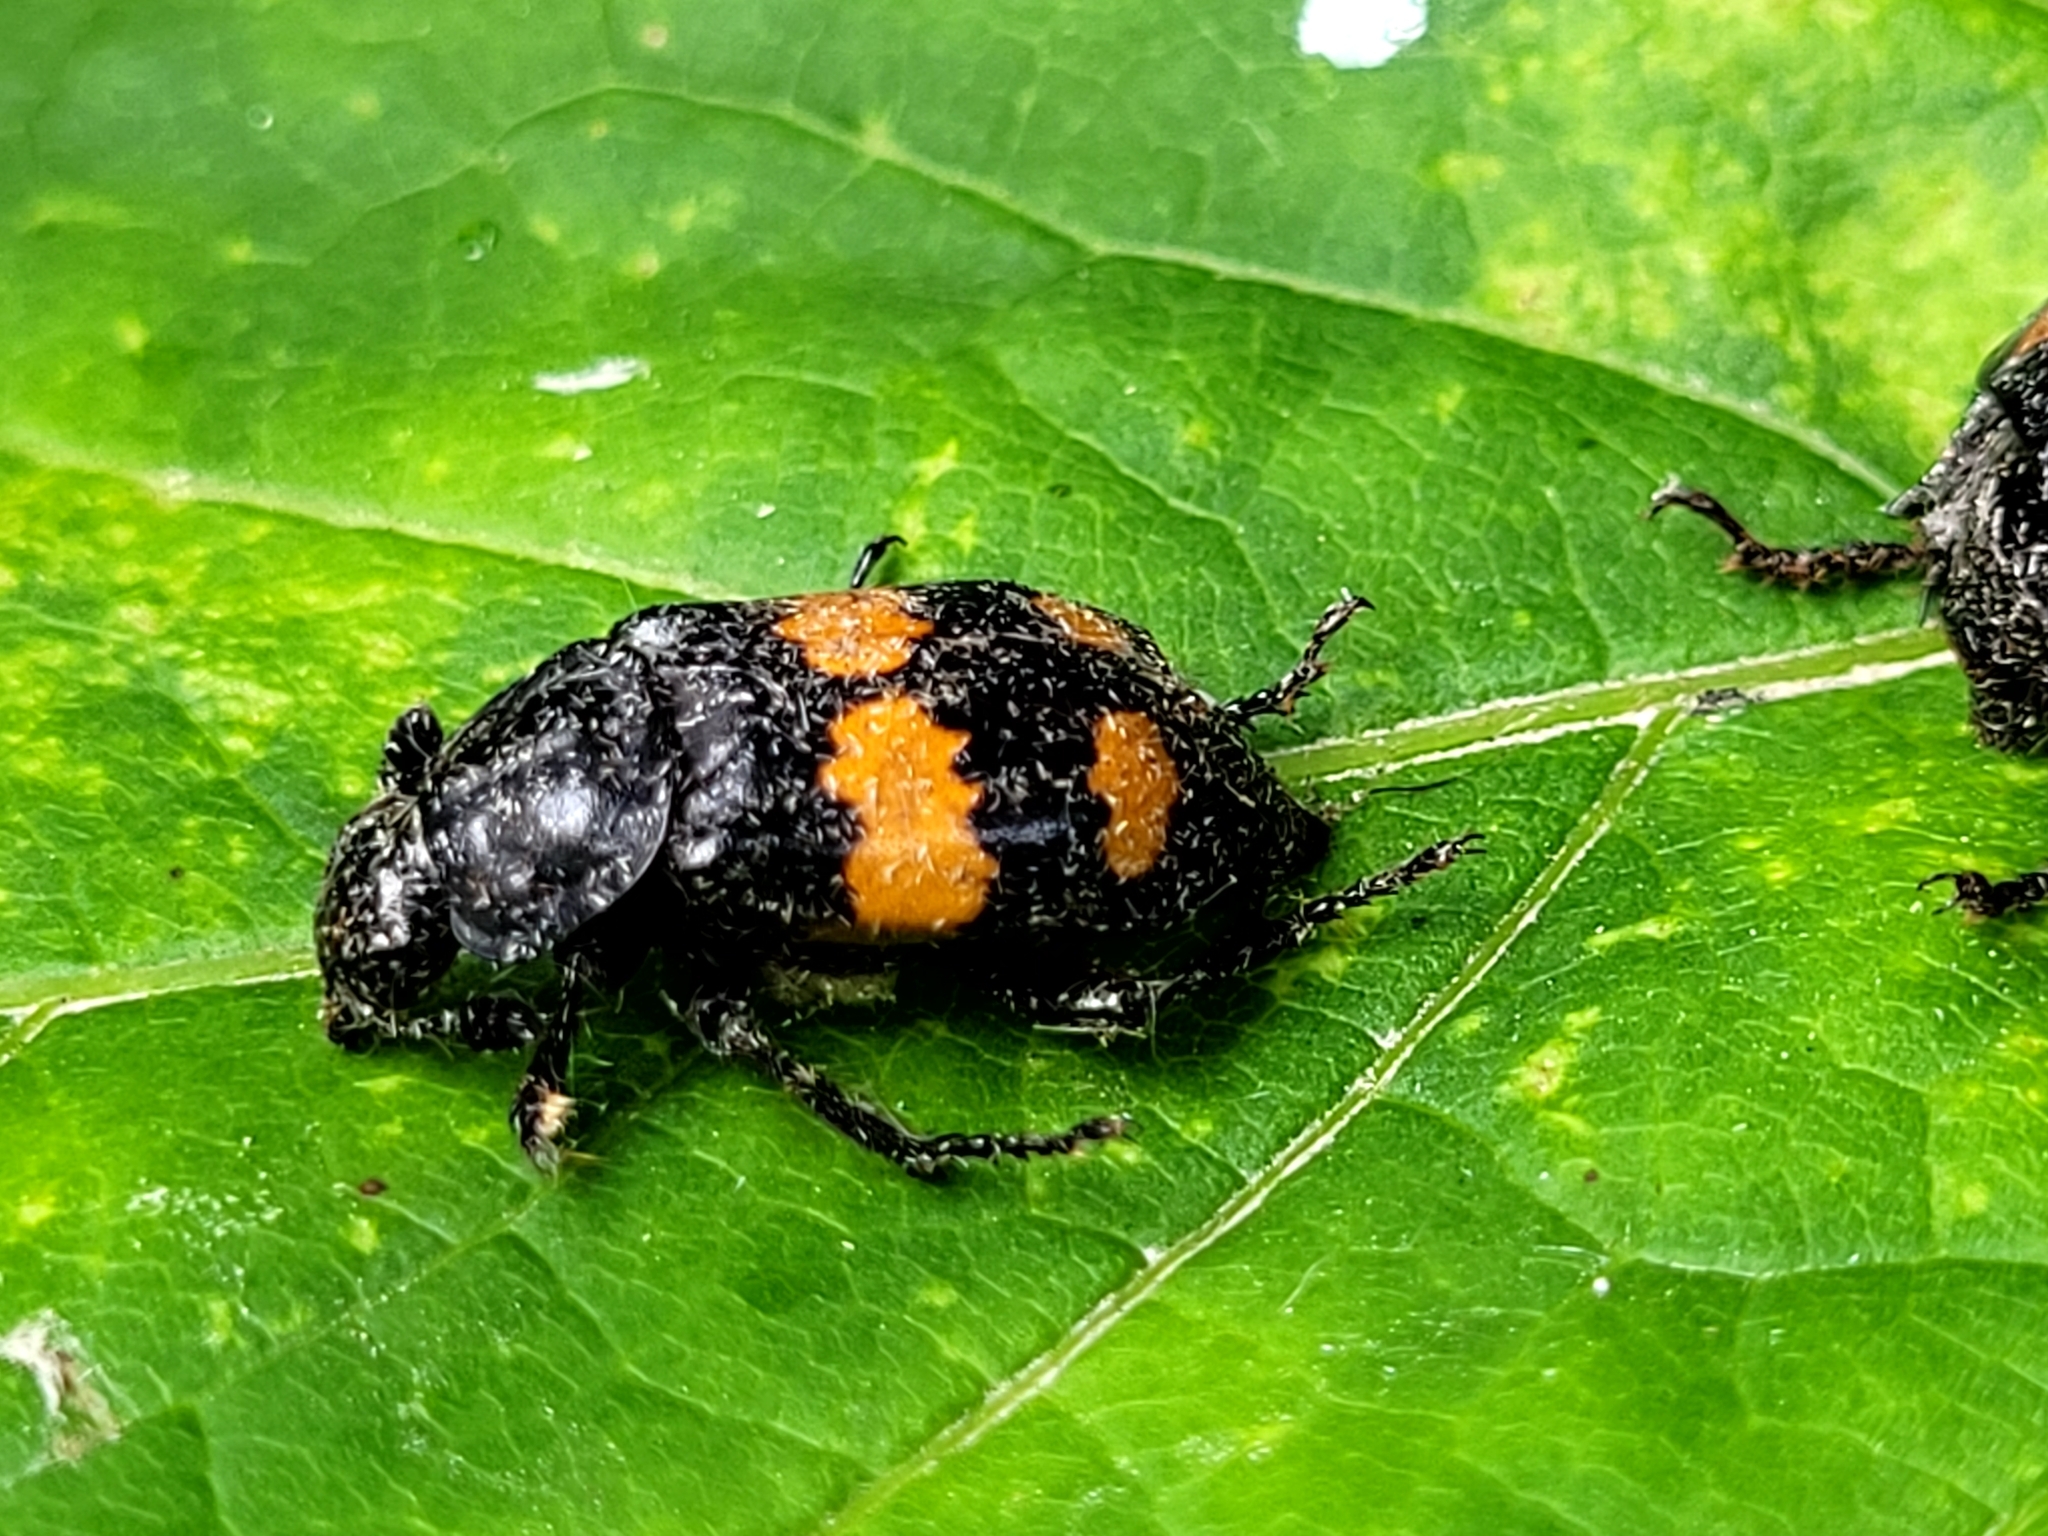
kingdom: Animalia
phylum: Arthropoda
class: Insecta
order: Coleoptera
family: Staphylinidae
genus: Nicrophorus
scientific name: Nicrophorus defodiens
